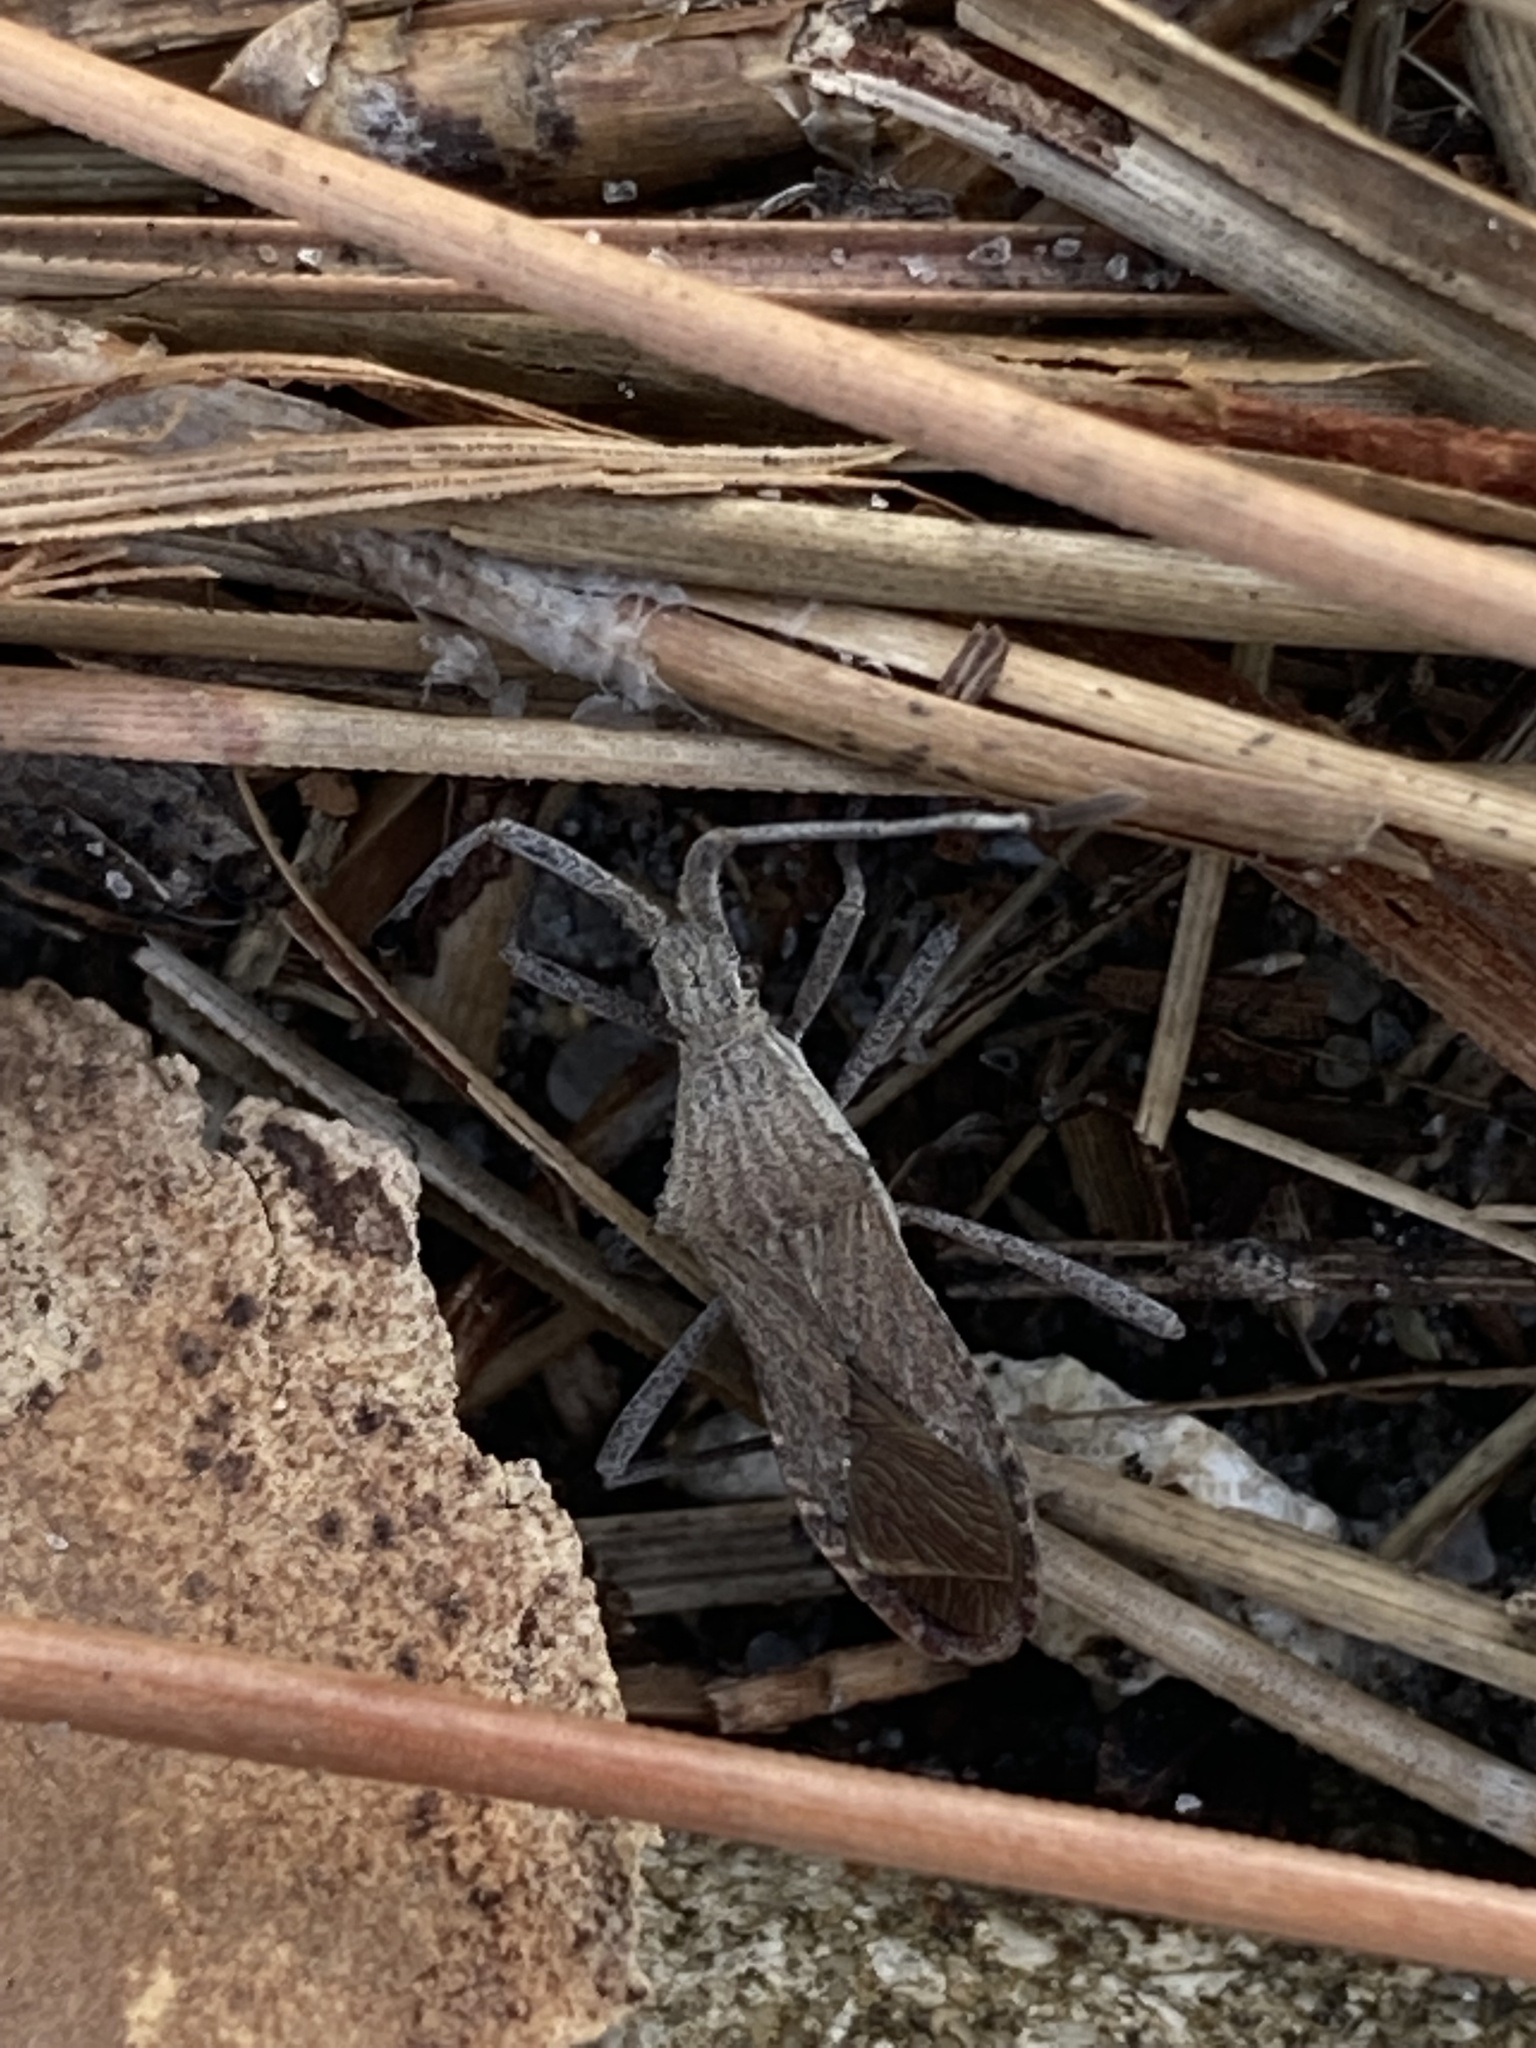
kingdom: Animalia
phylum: Arthropoda
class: Insecta
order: Hemiptera
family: Coreidae
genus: Chariesterus
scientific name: Chariesterus antennator
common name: Flat horned coreid
